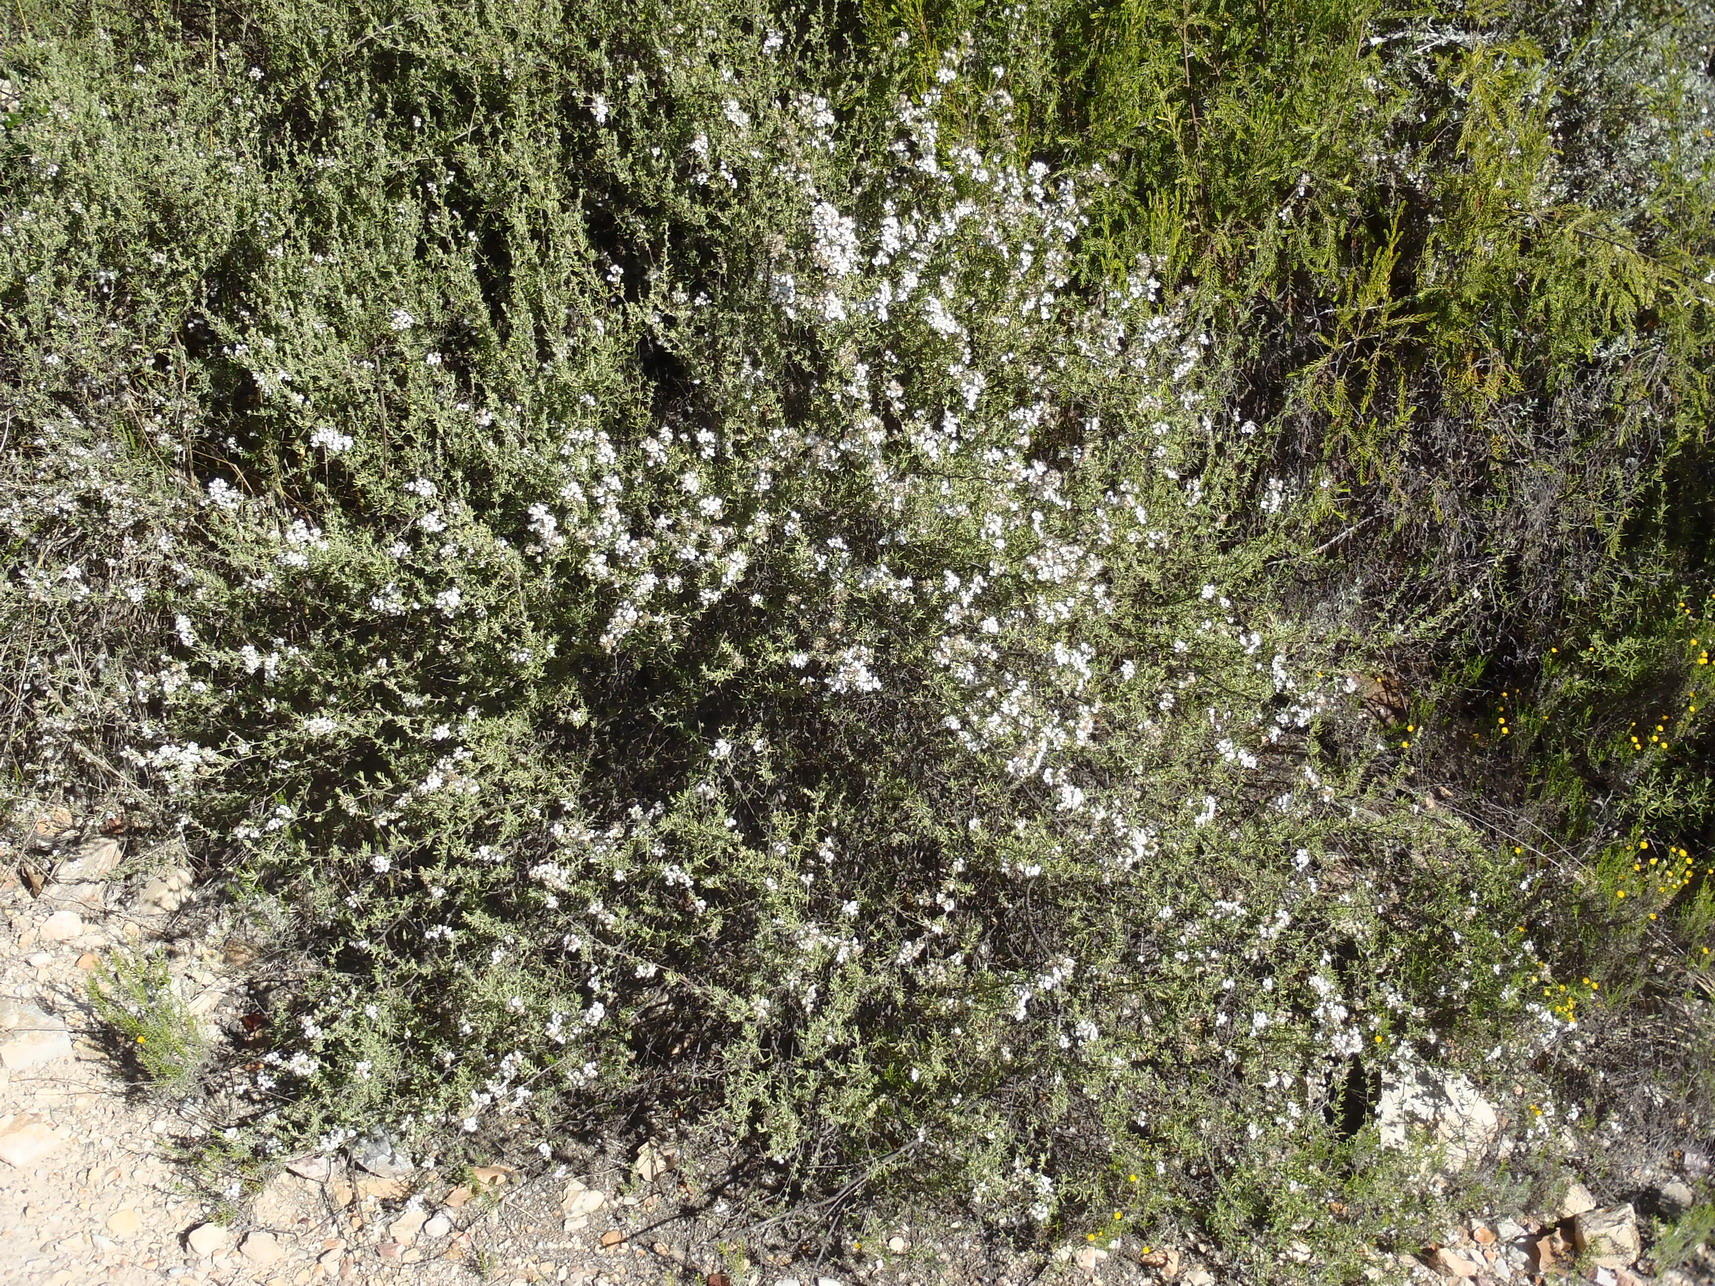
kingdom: Plantae
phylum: Tracheophyta
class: Magnoliopsida
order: Asterales
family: Asteraceae
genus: Eriocephalus
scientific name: Eriocephalus africanus
